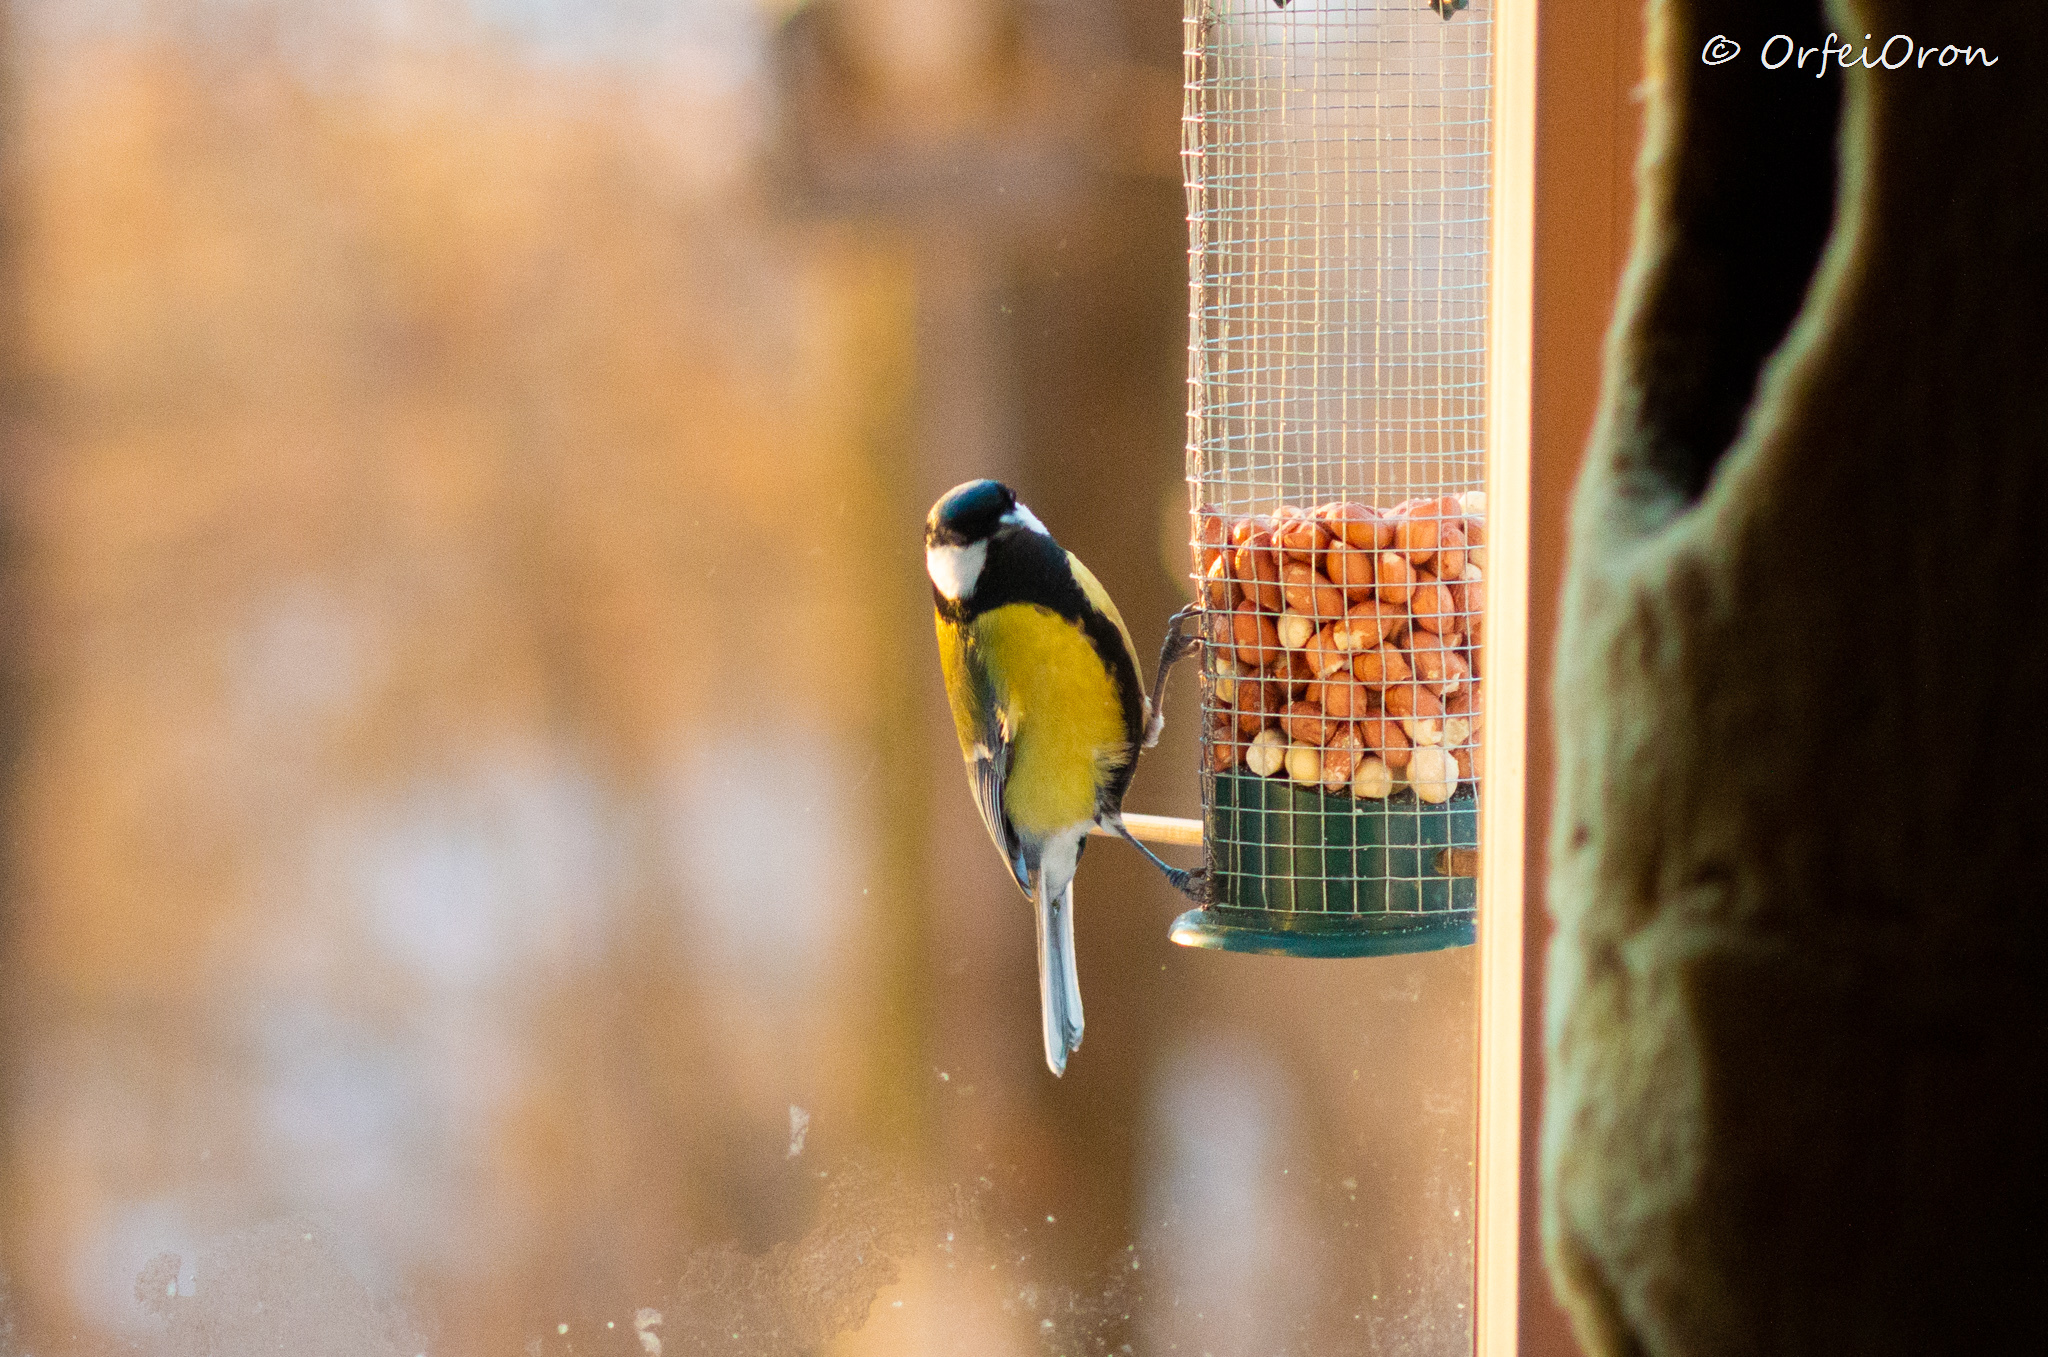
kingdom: Animalia
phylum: Chordata
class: Aves
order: Passeriformes
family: Paridae
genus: Parus
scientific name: Parus major
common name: Great tit
